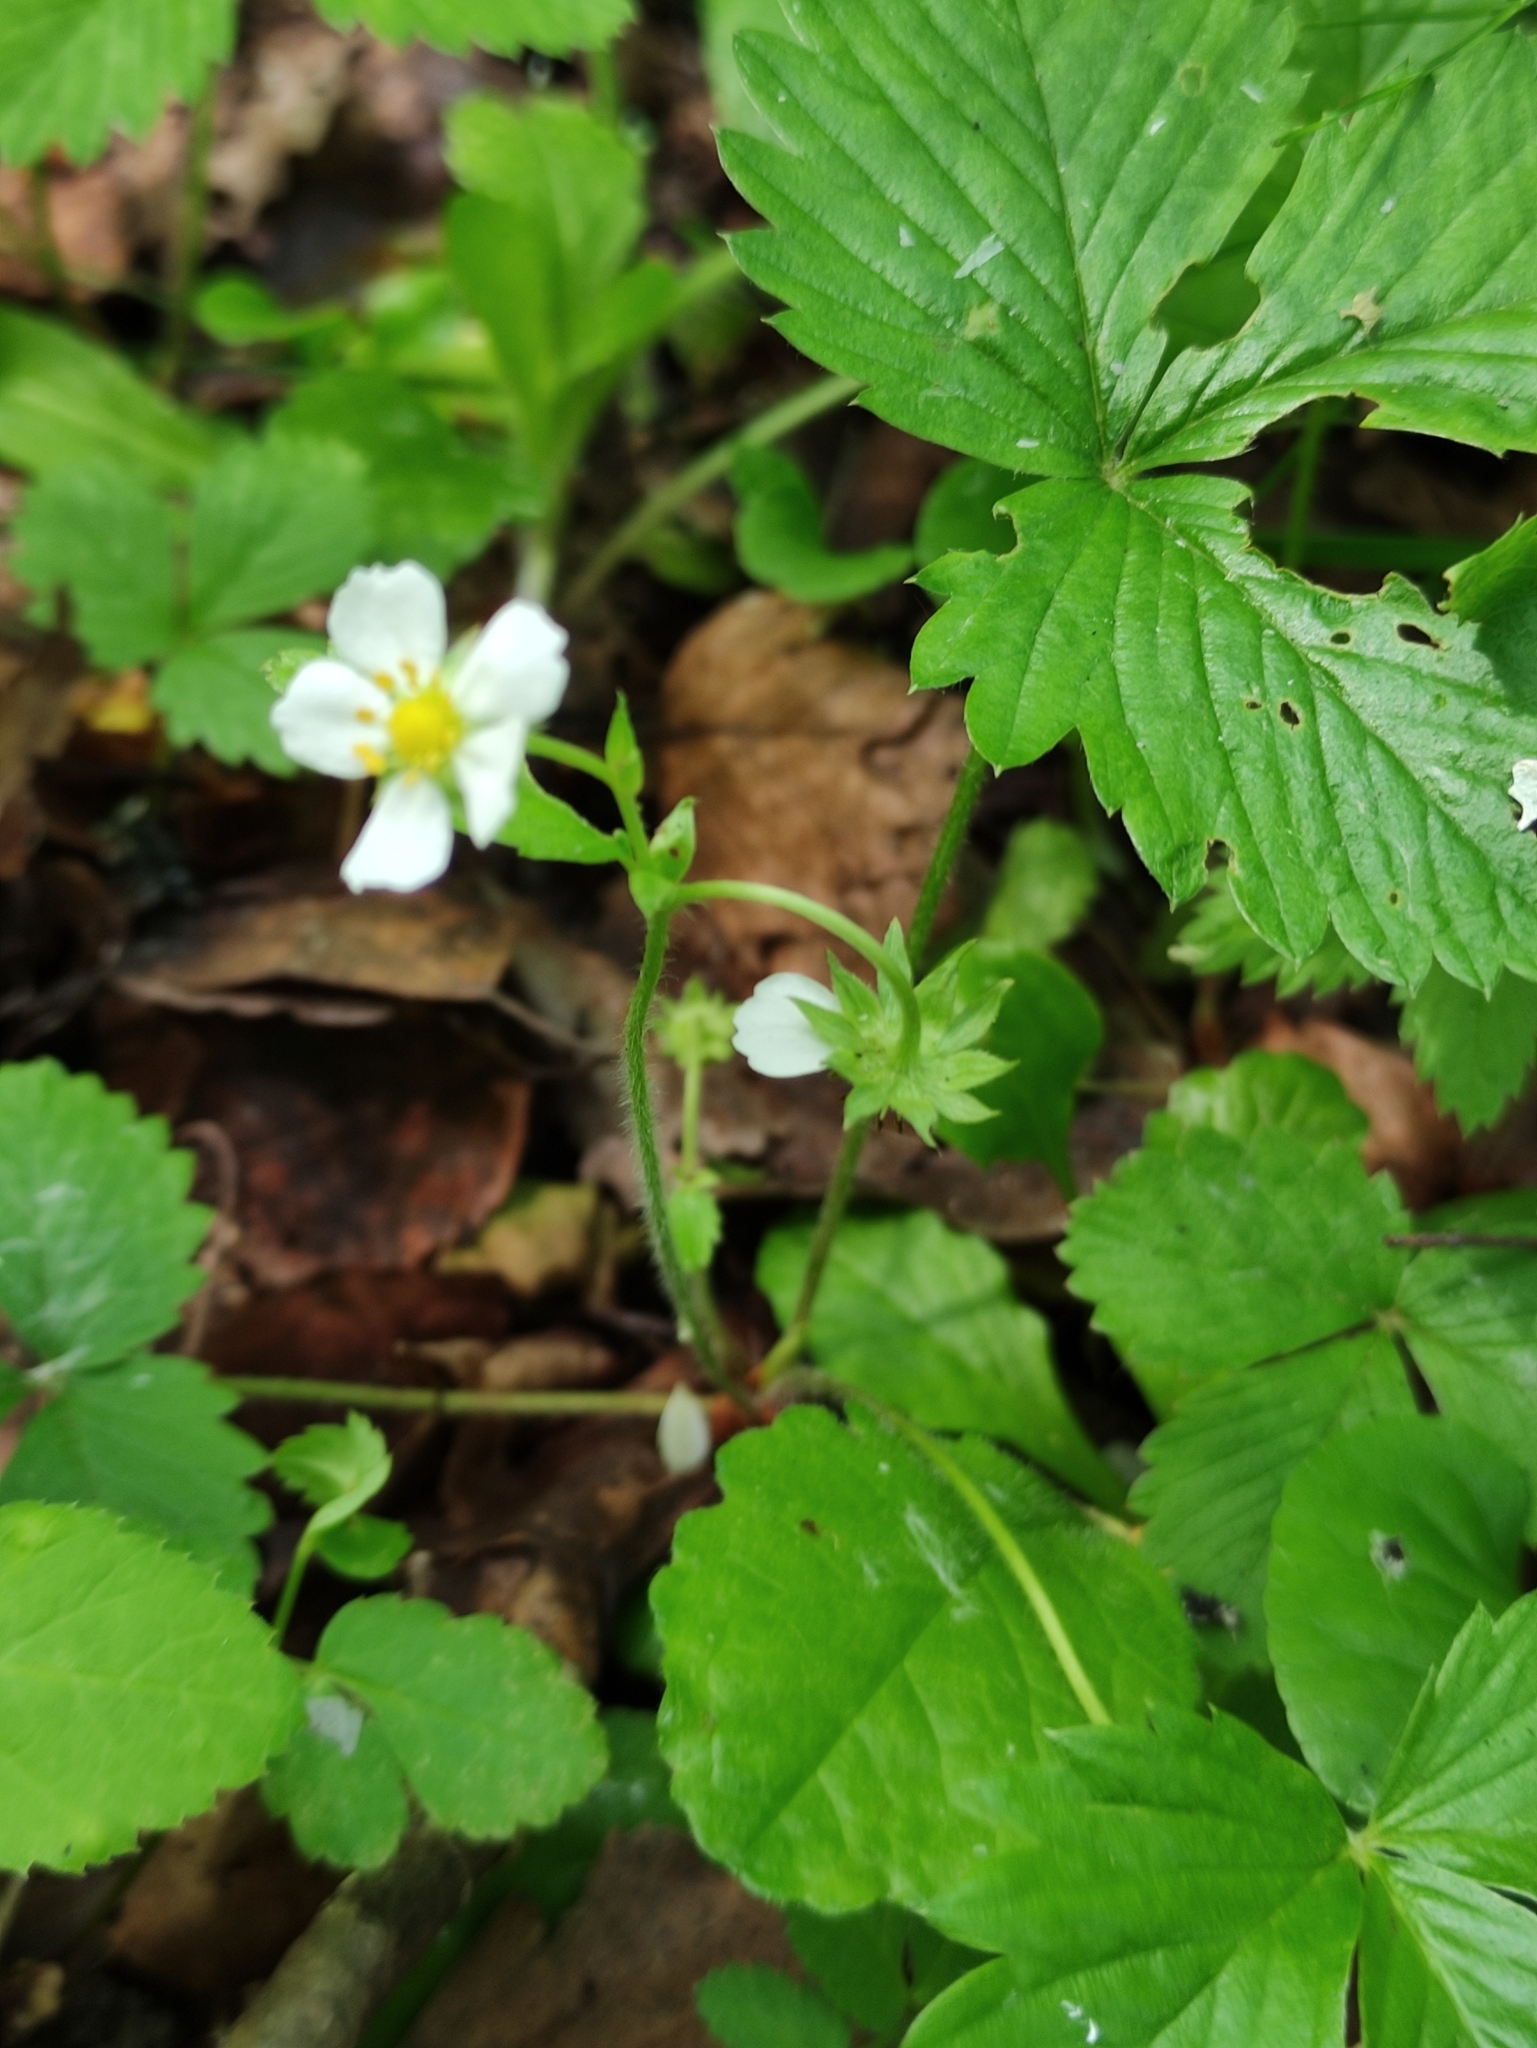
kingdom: Plantae
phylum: Tracheophyta
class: Magnoliopsida
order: Rosales
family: Rosaceae
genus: Fragaria
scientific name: Fragaria vesca
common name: Wild strawberry
